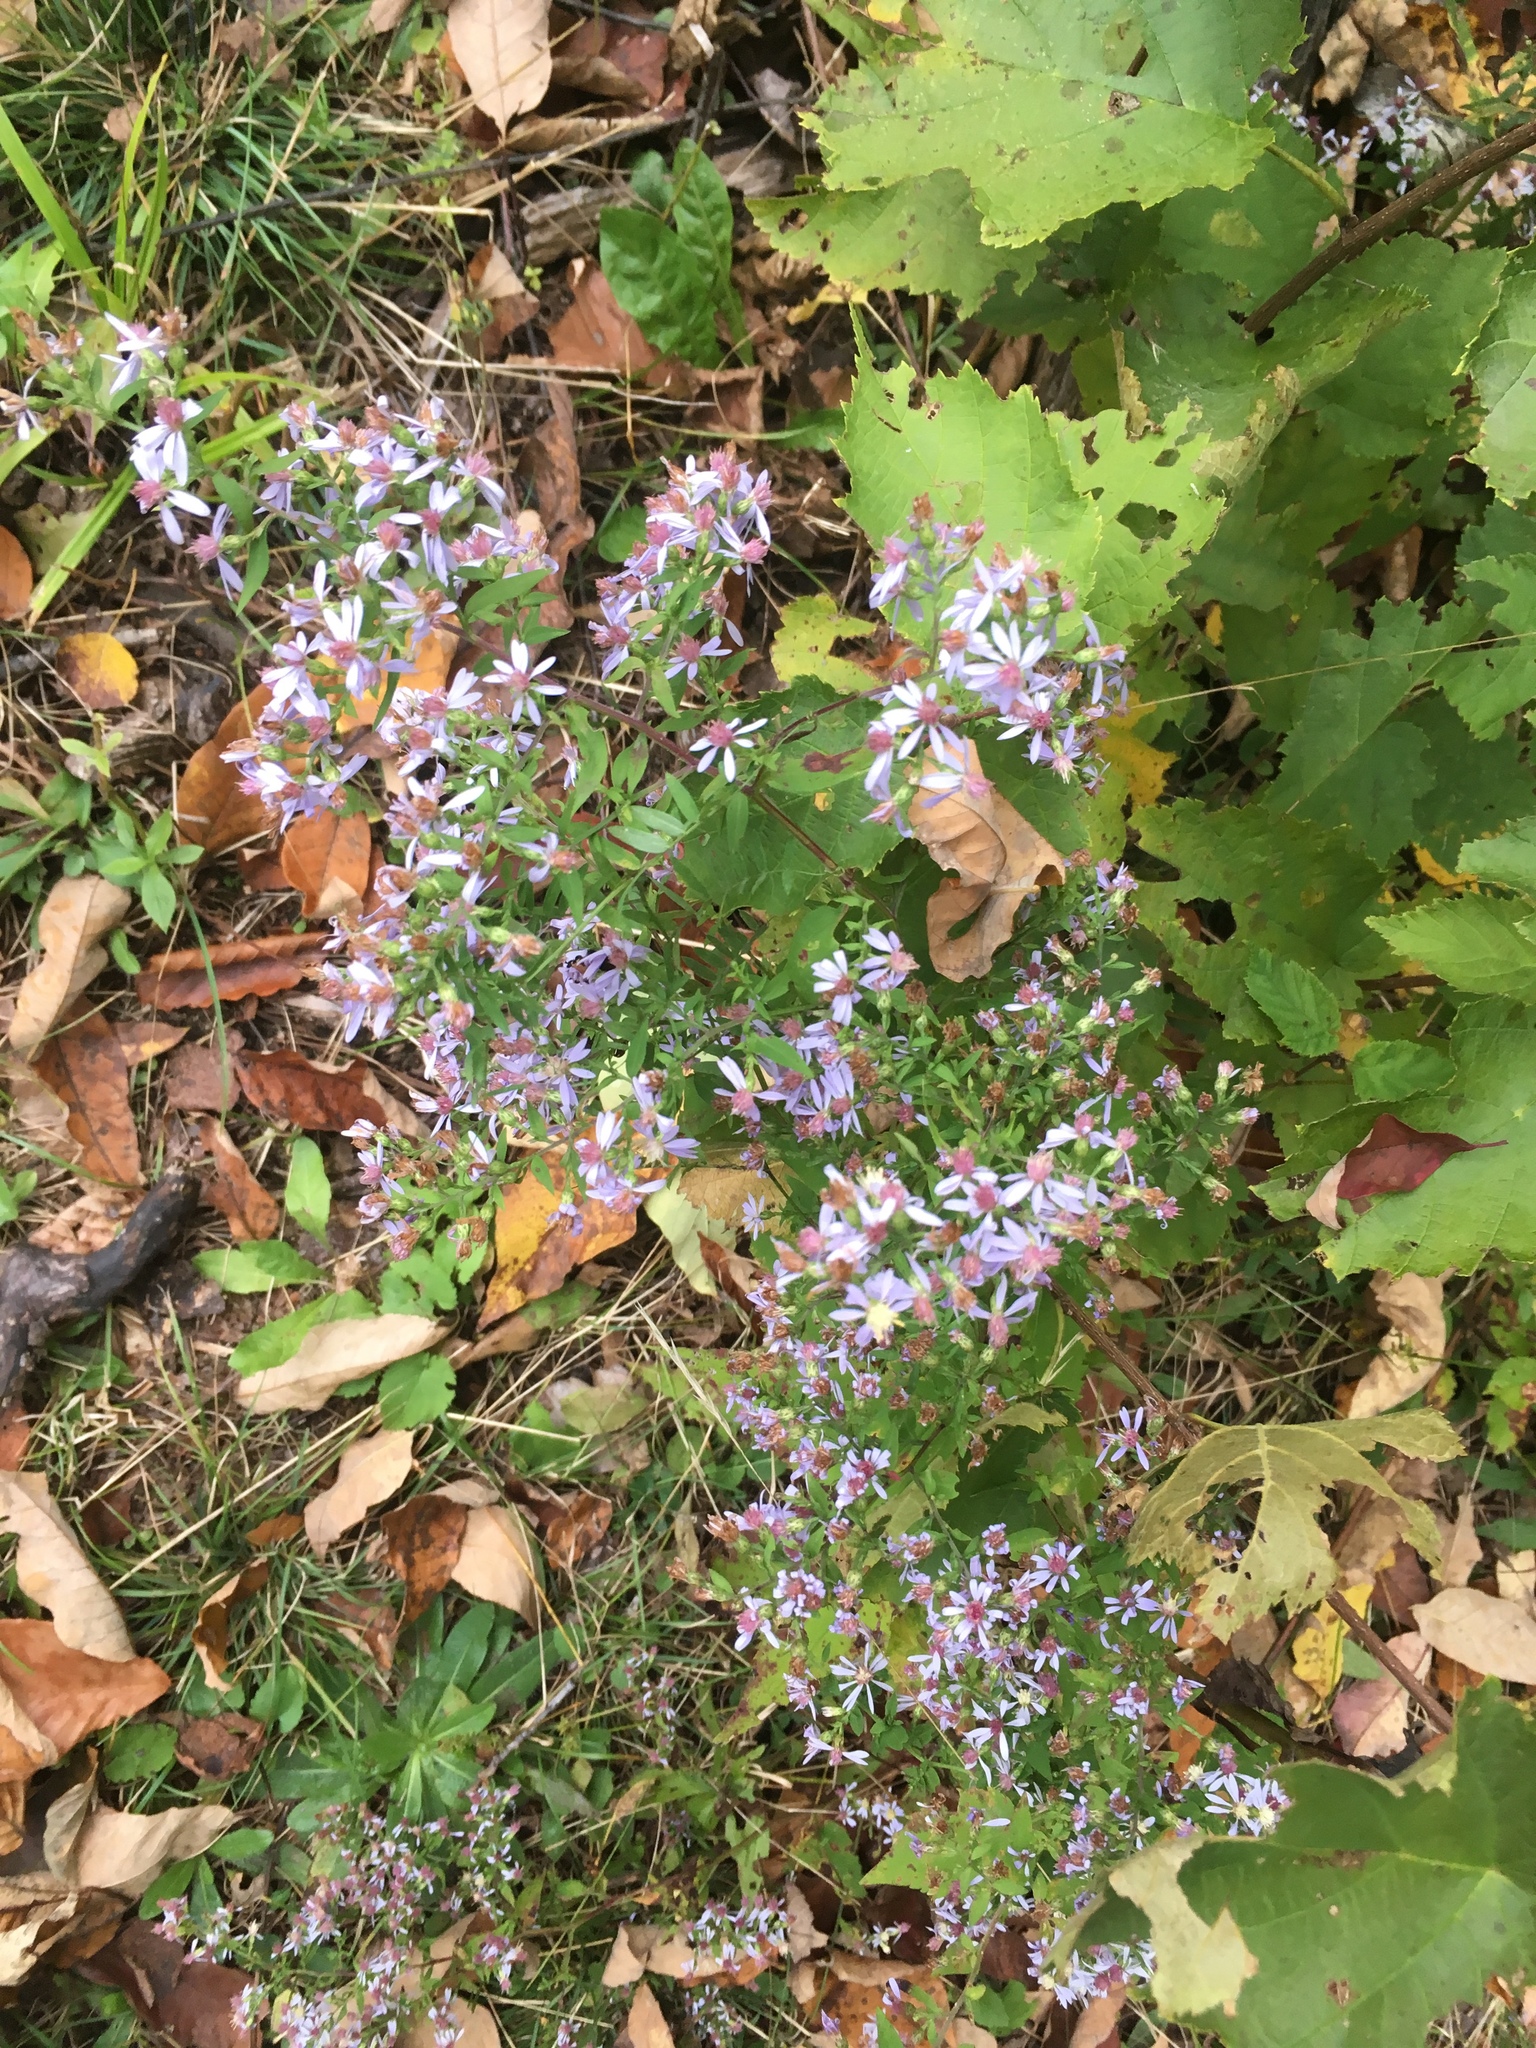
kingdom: Plantae
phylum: Tracheophyta
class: Magnoliopsida
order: Asterales
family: Asteraceae
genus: Symphyotrichum
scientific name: Symphyotrichum cordifolium
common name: Beeweed
